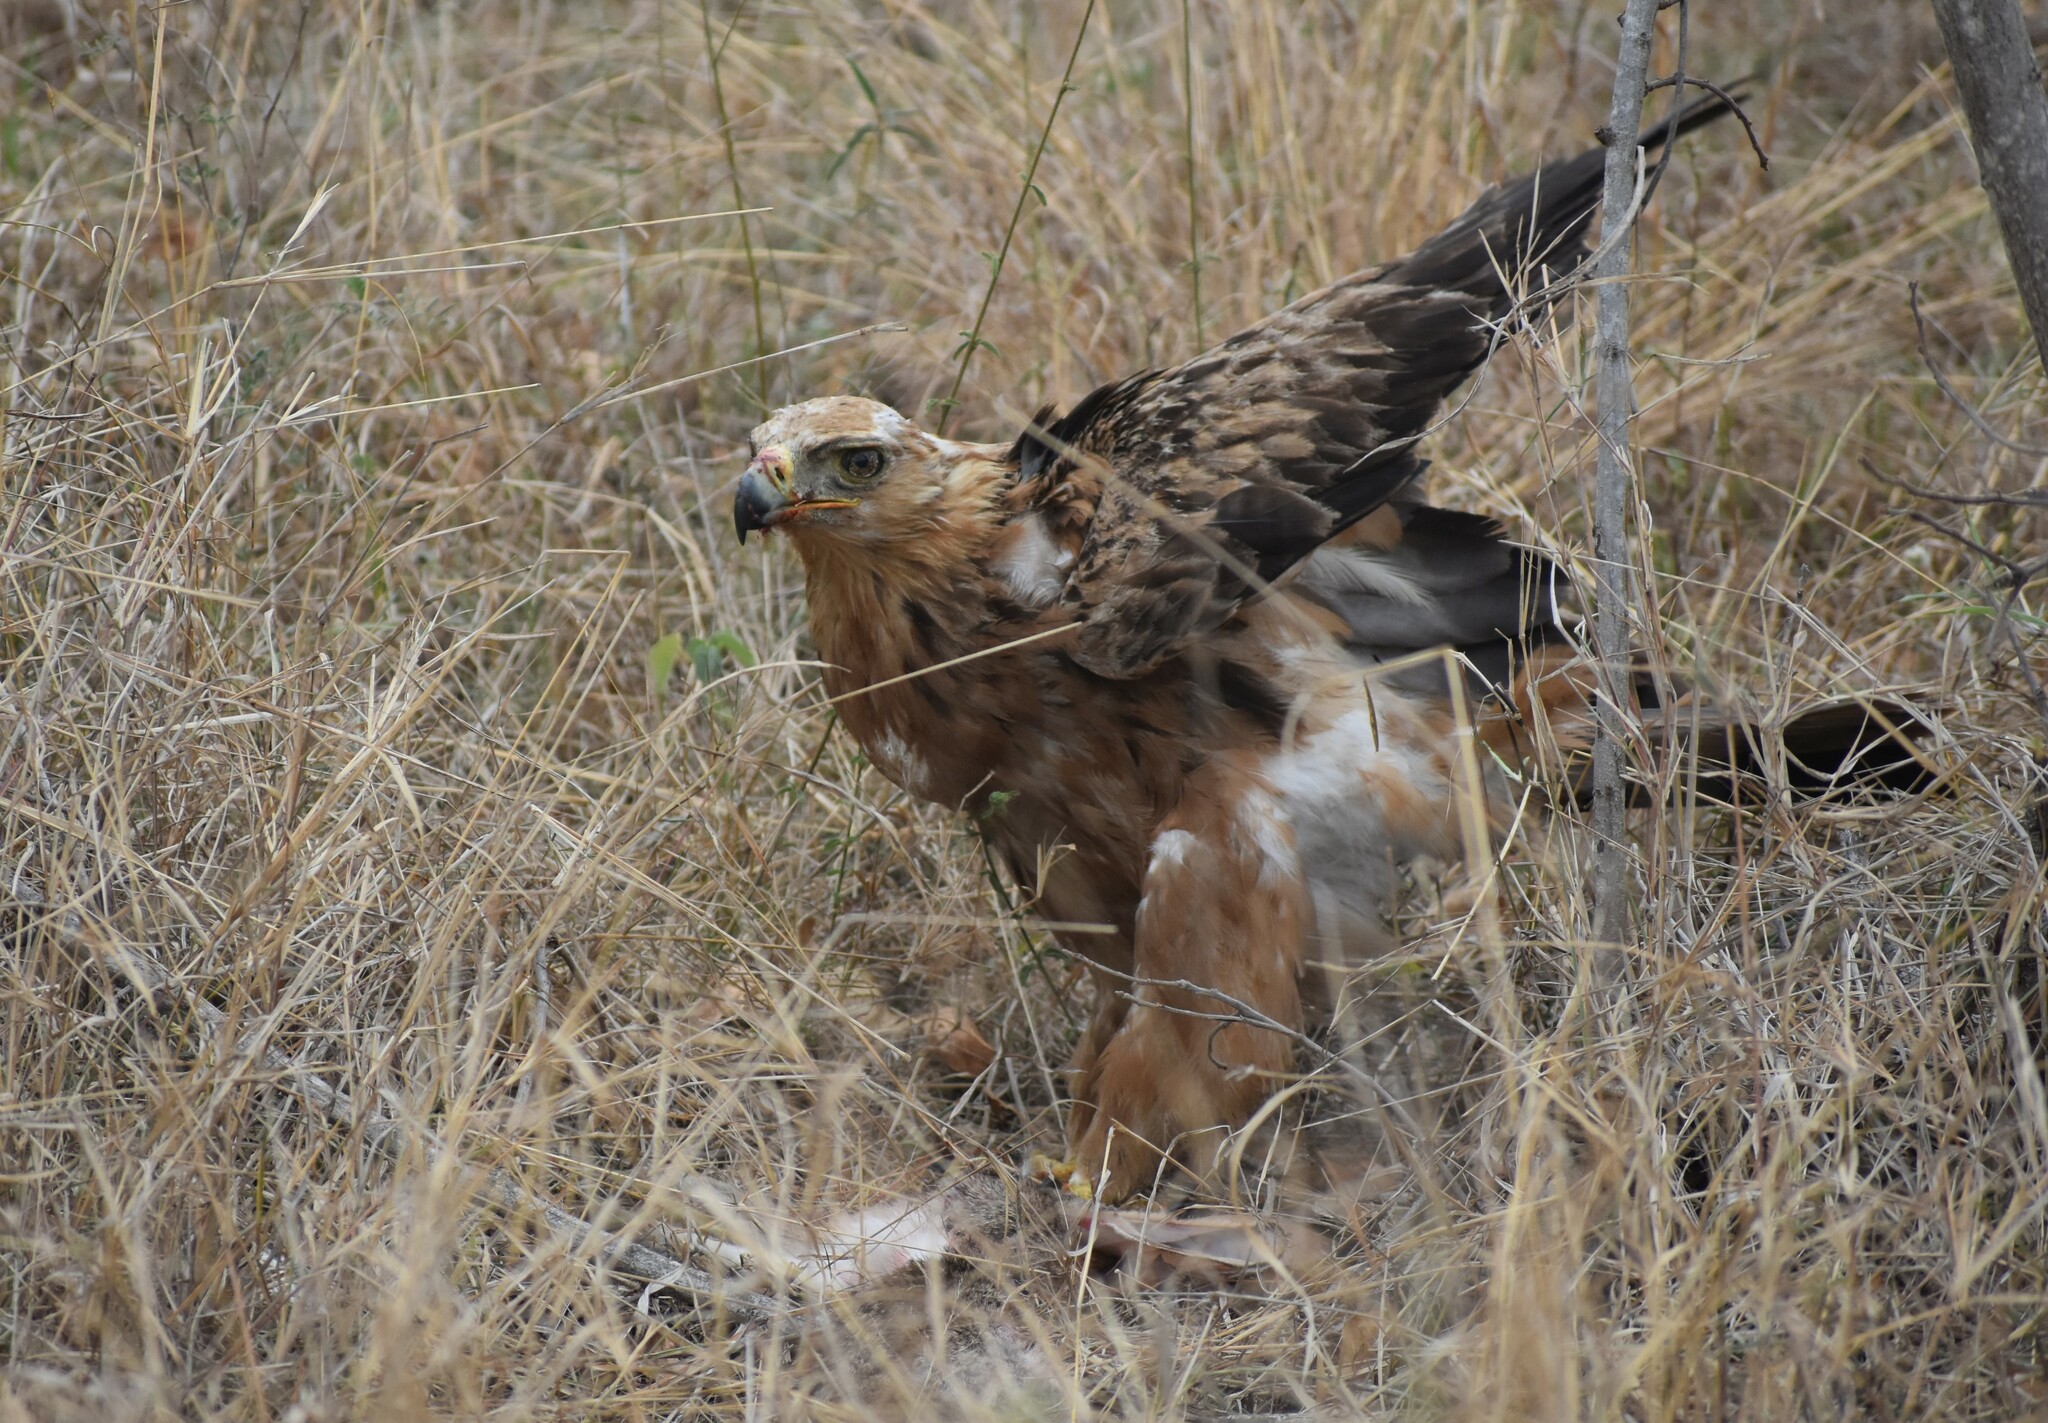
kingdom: Animalia
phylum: Chordata
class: Aves
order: Accipitriformes
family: Accipitridae
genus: Aquila
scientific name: Aquila rapax
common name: Tawny eagle
